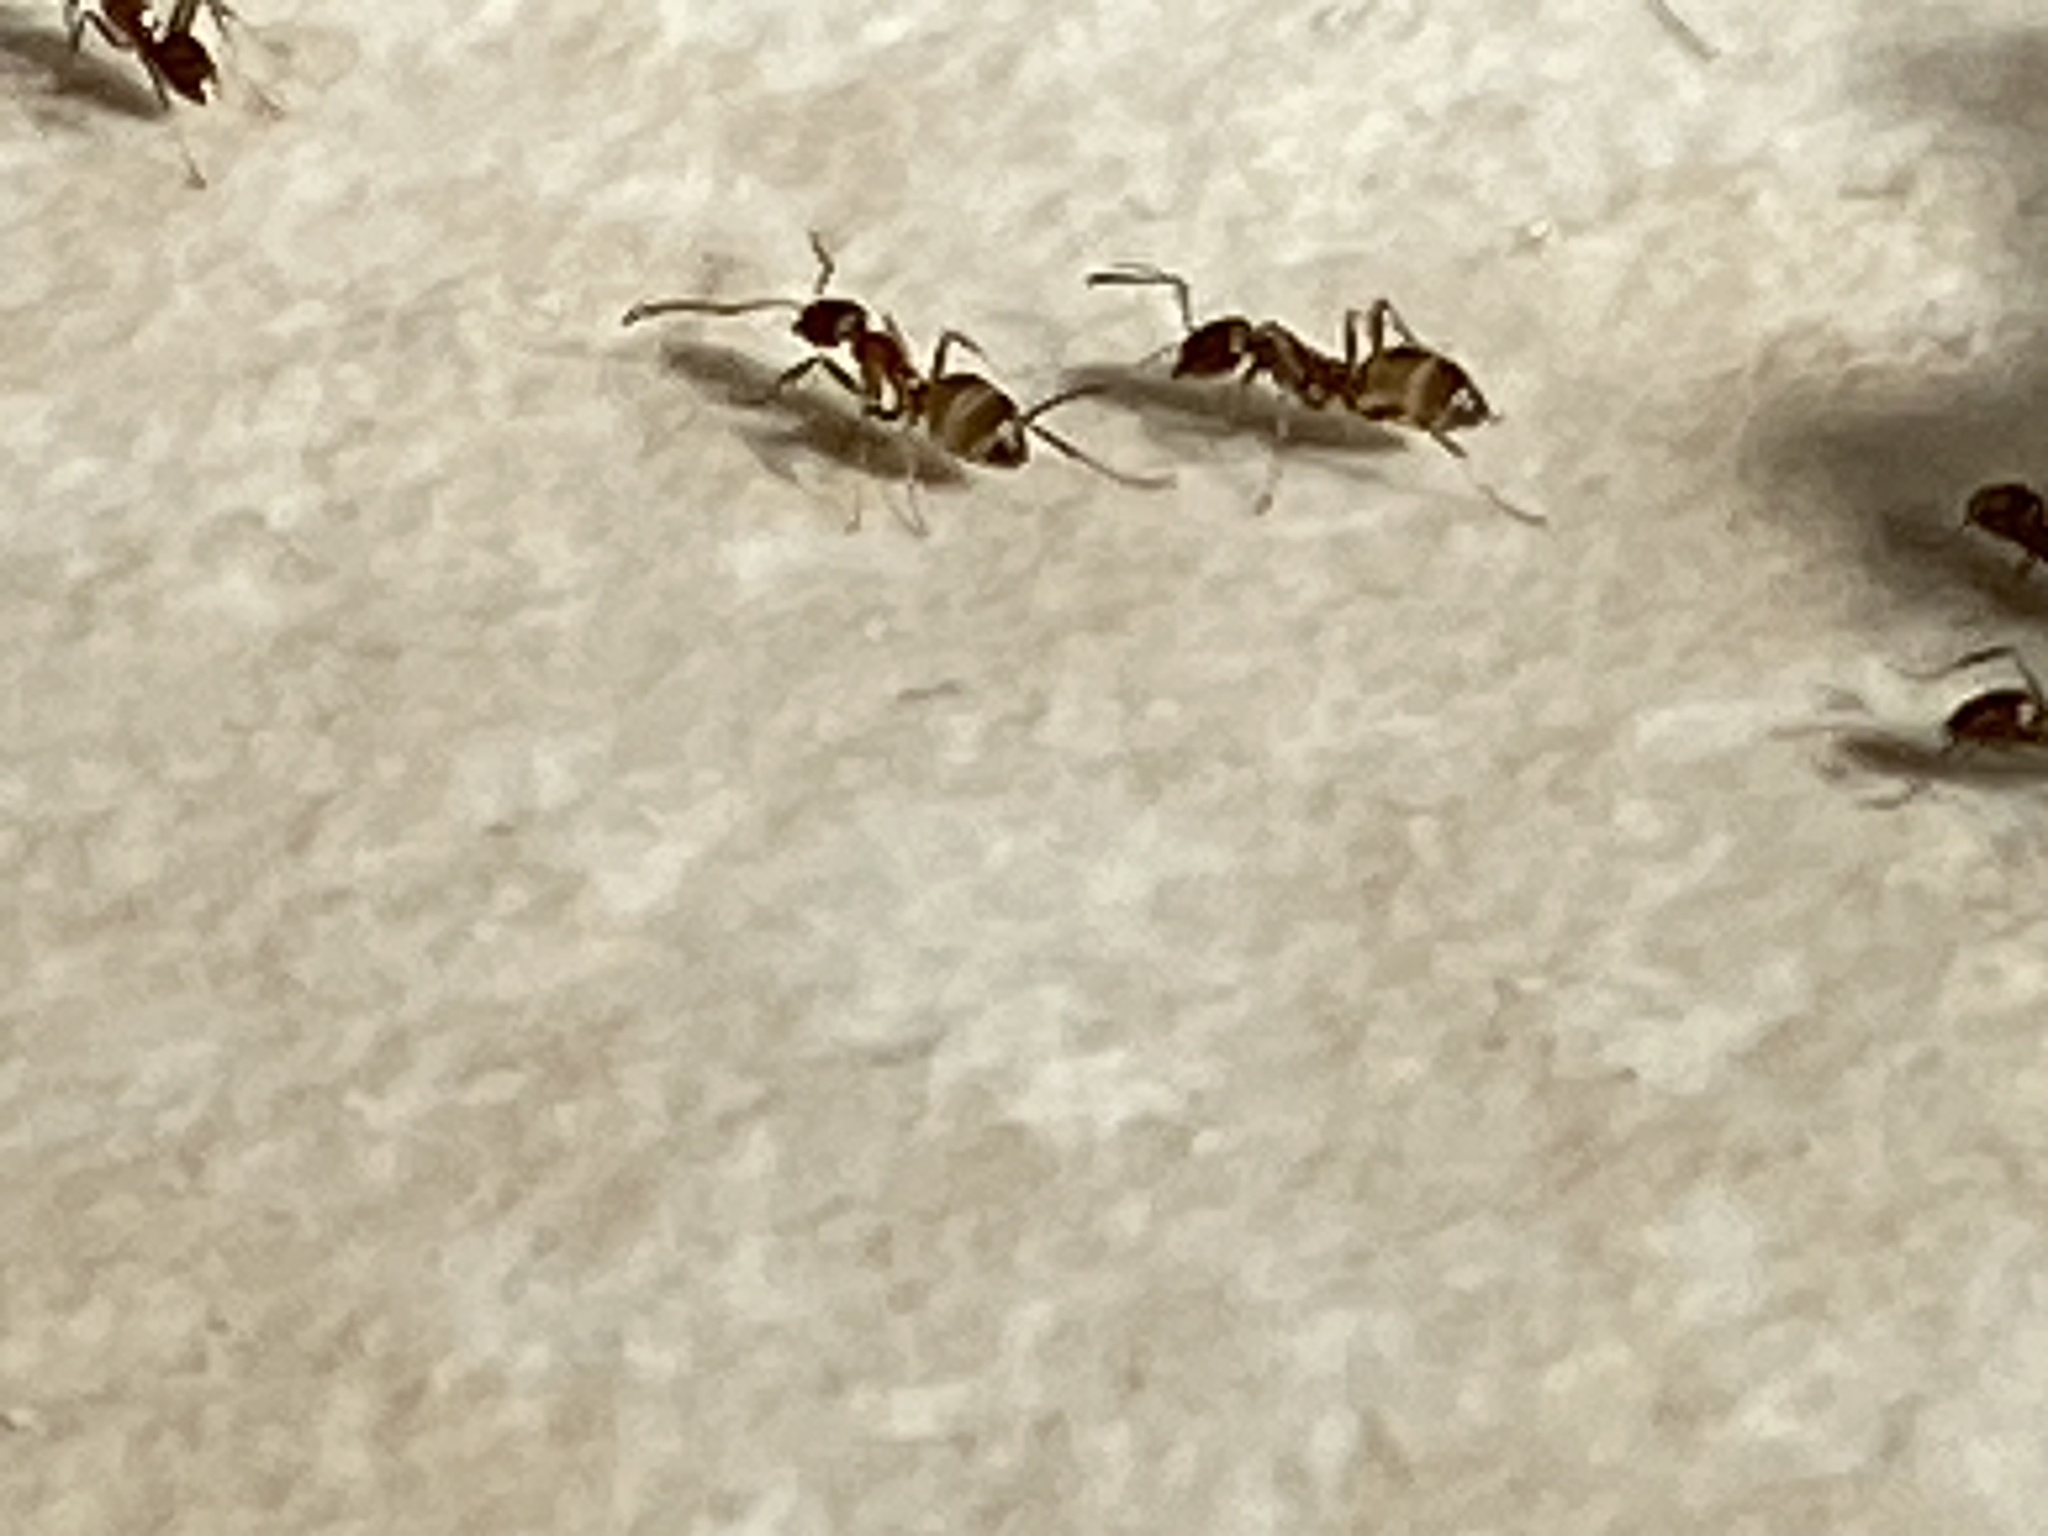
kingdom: Animalia
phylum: Arthropoda
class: Insecta
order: Hymenoptera
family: Formicidae
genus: Linepithema
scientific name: Linepithema humile
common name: Argentine ant
